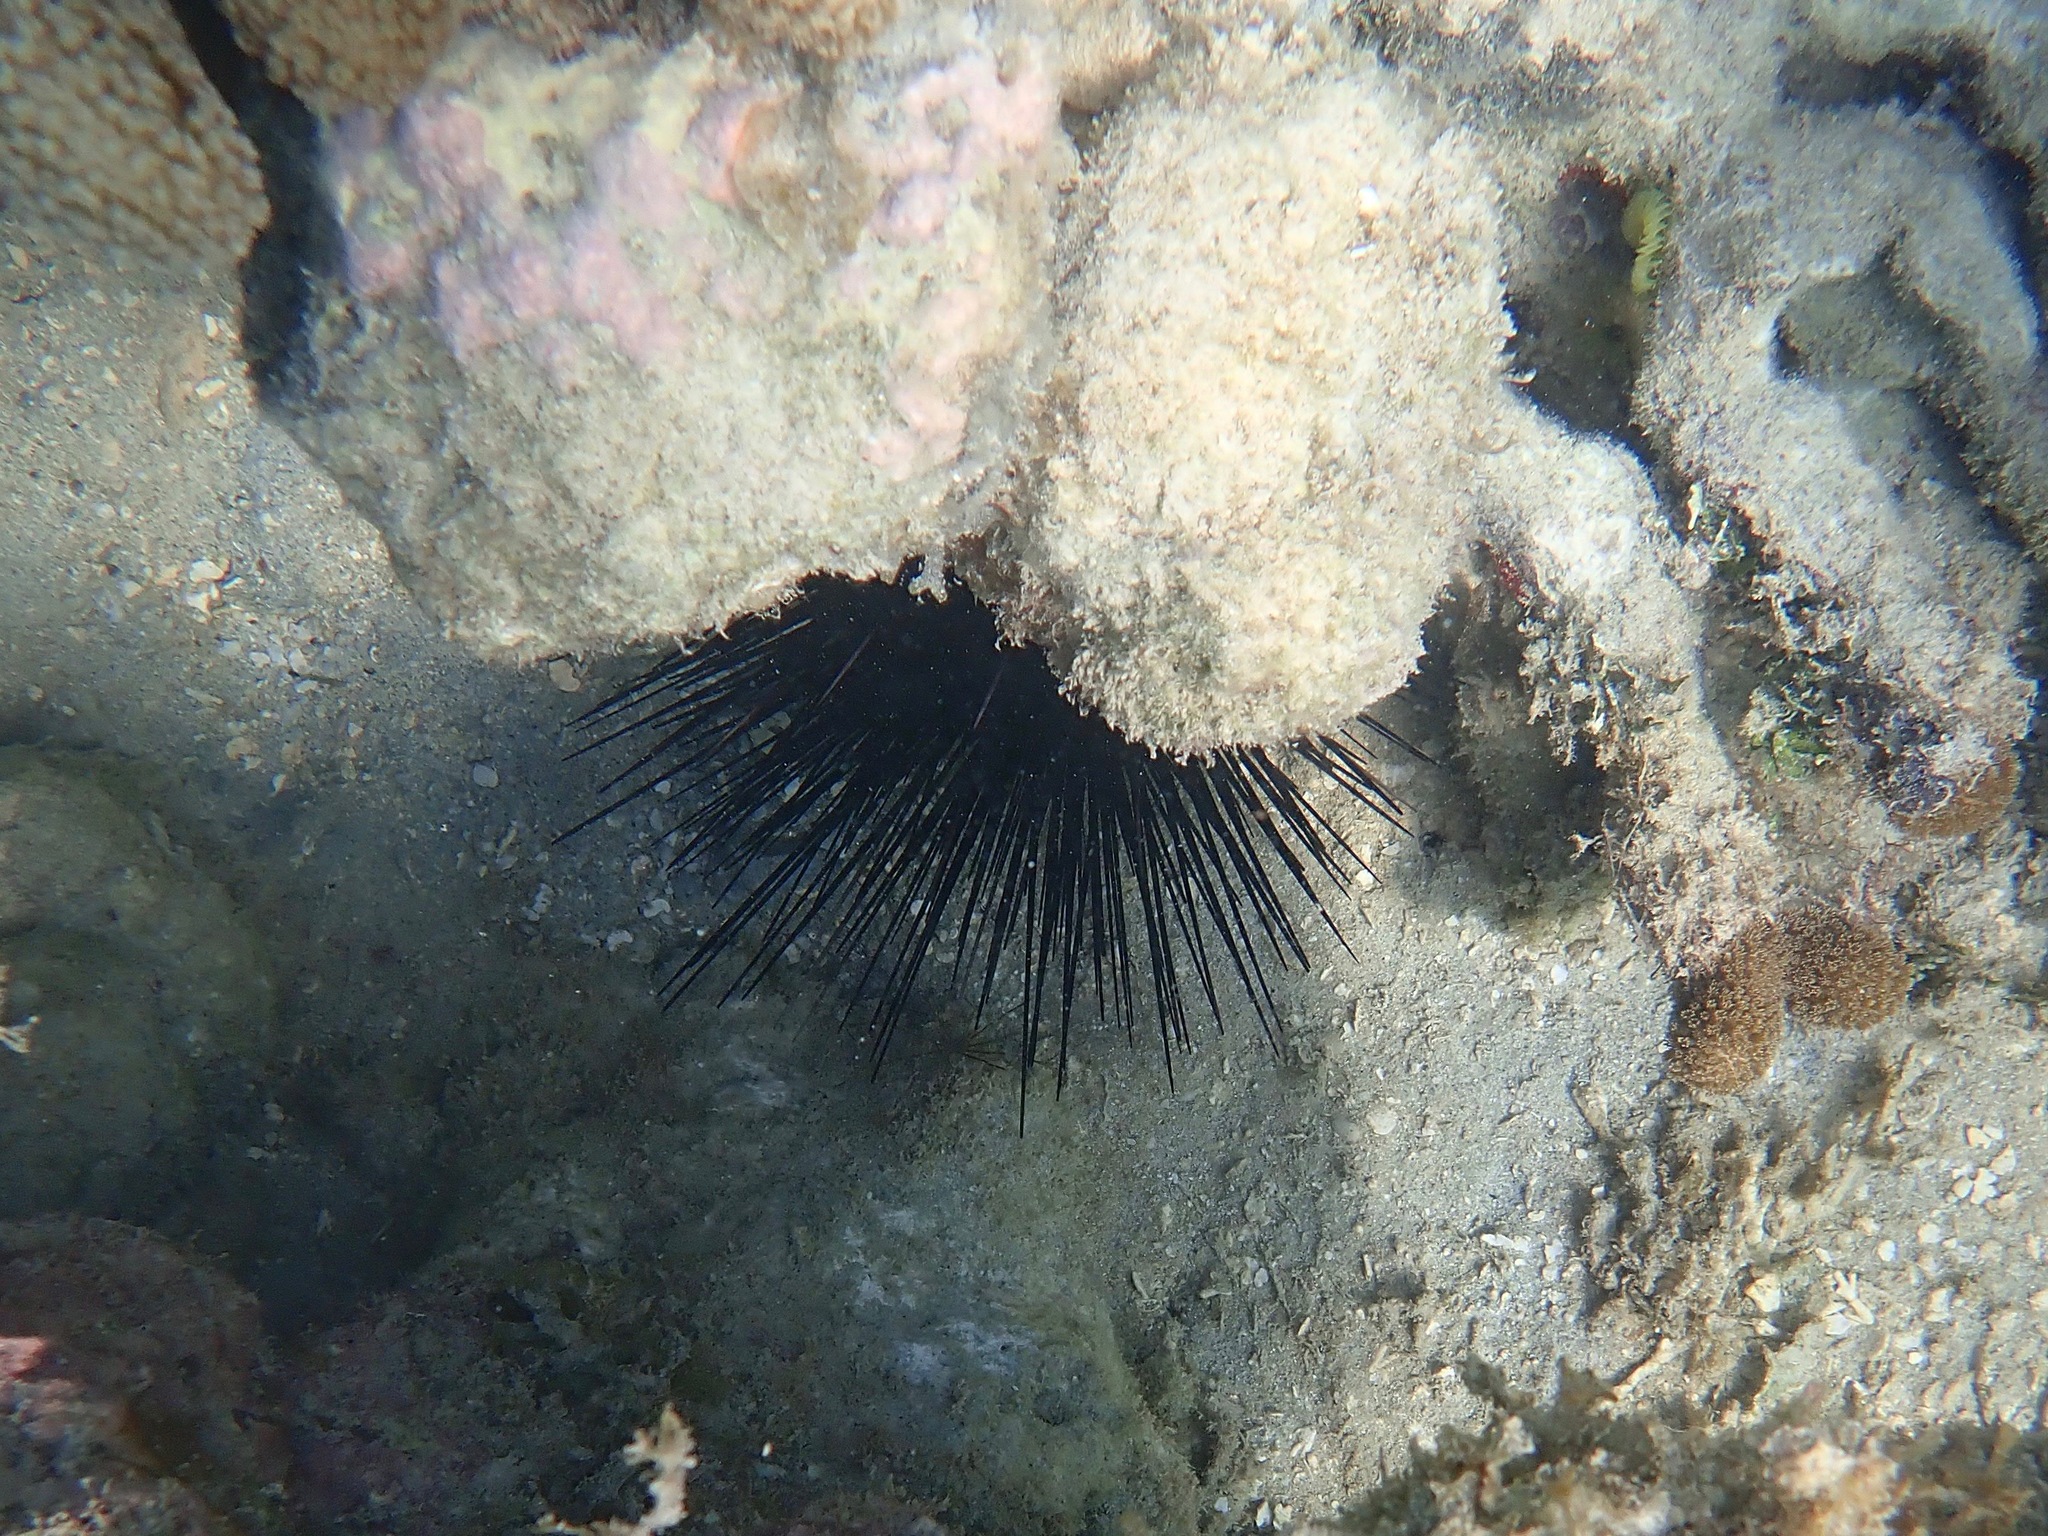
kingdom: Animalia
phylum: Echinodermata
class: Echinoidea
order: Diadematoida
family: Diadematidae
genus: Diadema
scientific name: Diadema antillarum
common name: Spiny urchin
